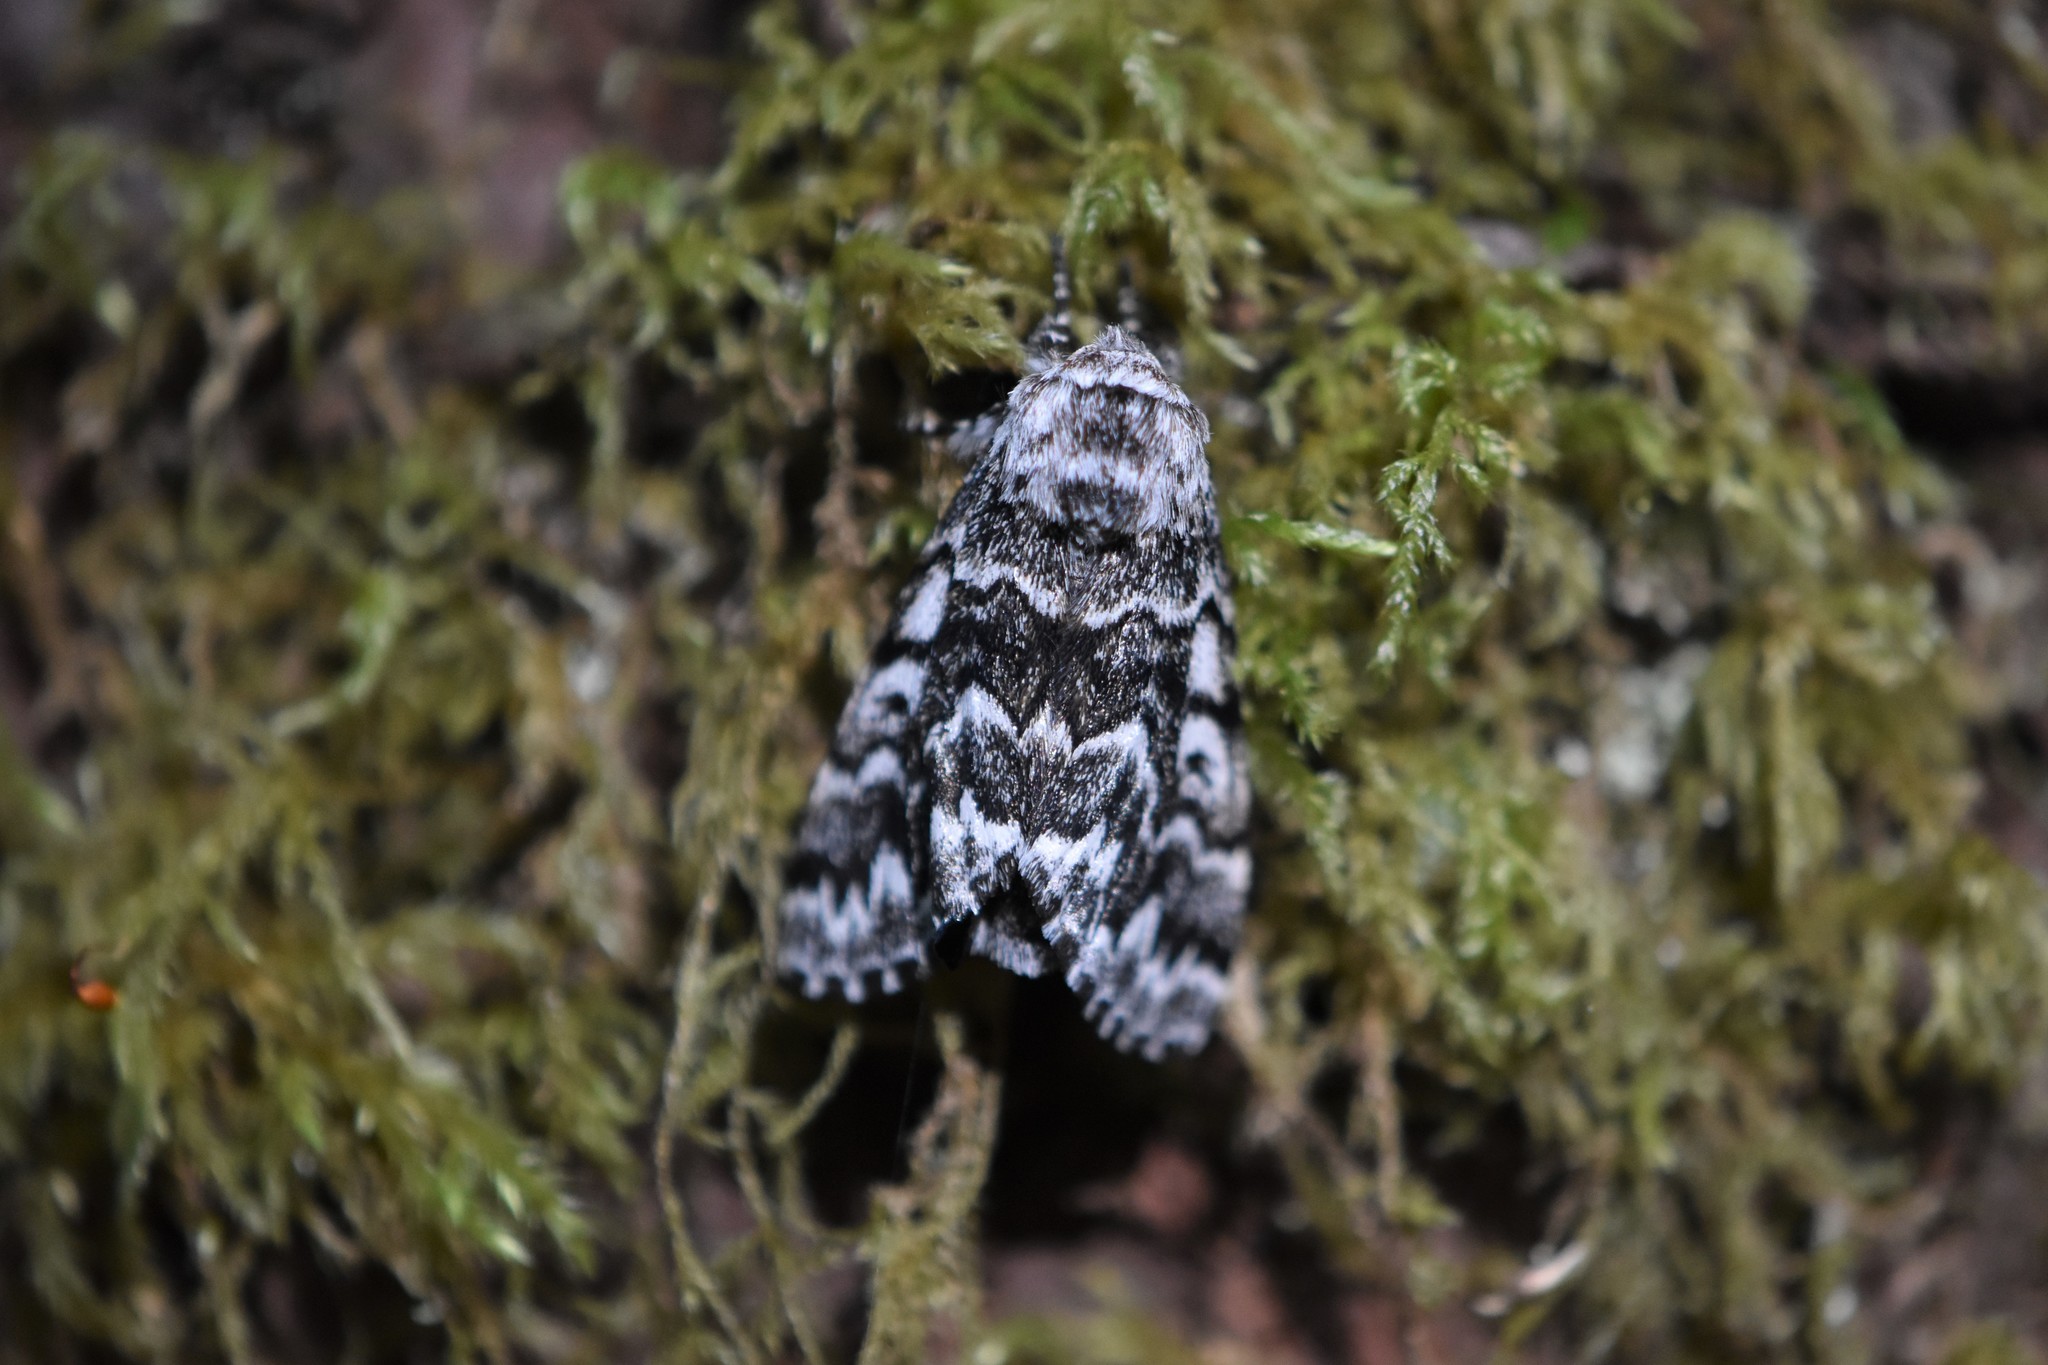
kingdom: Animalia
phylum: Arthropoda
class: Insecta
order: Lepidoptera
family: Noctuidae
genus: Panthea
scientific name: Panthea virginarius
